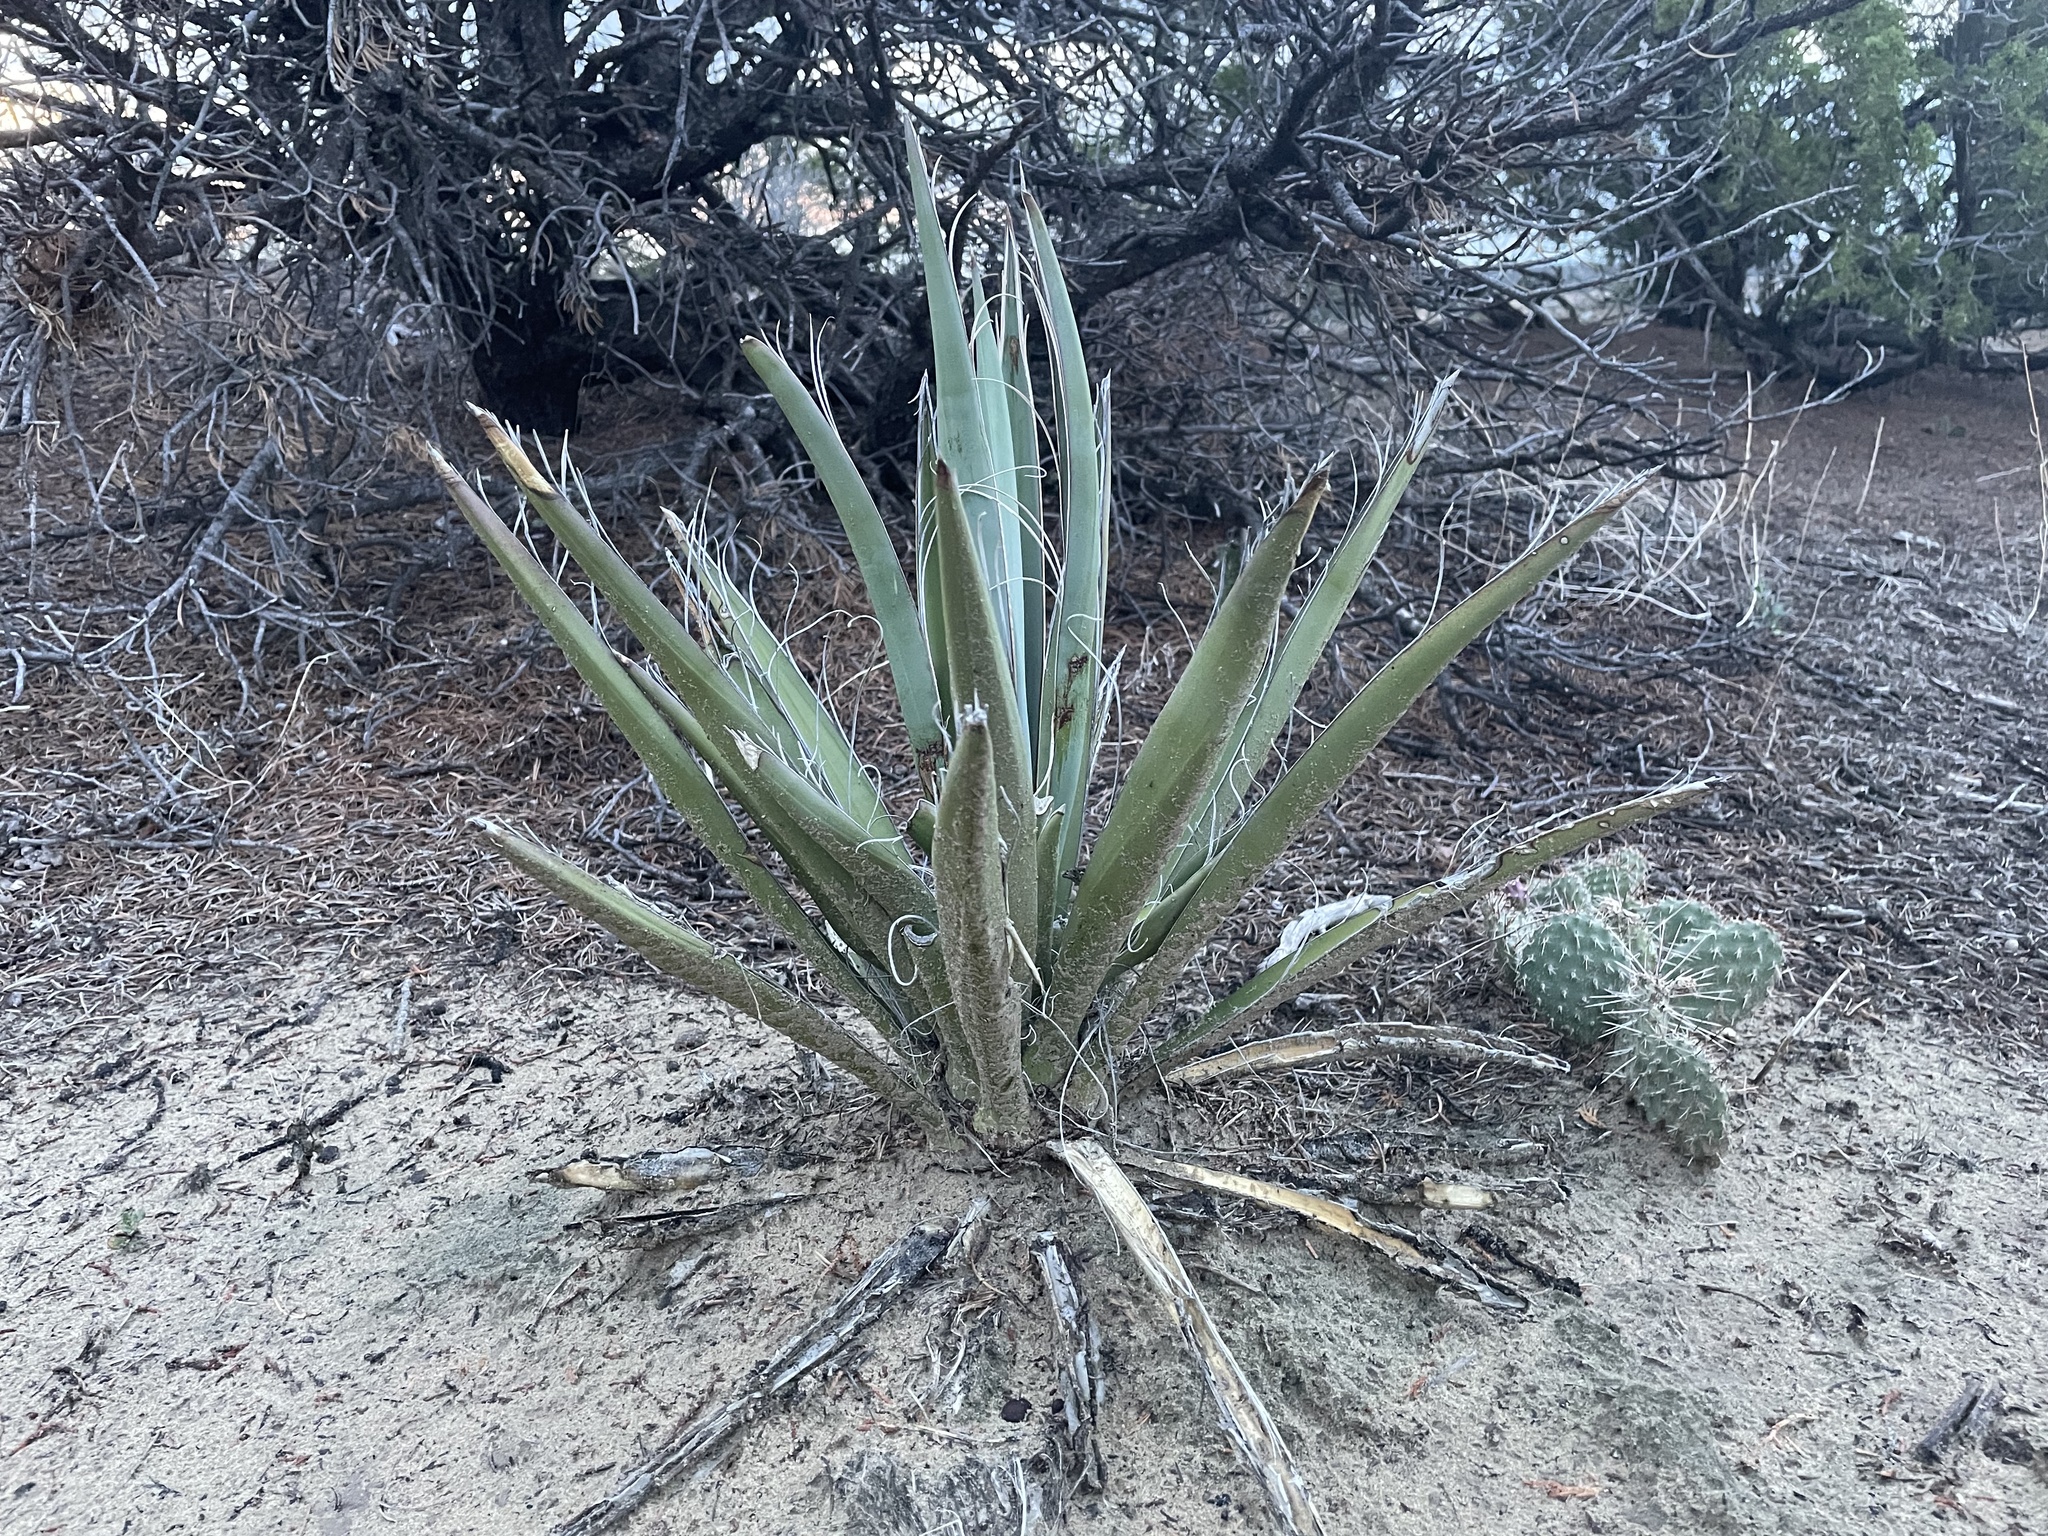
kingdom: Plantae
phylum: Tracheophyta
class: Liliopsida
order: Asparagales
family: Asparagaceae
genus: Yucca
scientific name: Yucca baccata
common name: Banana yucca
